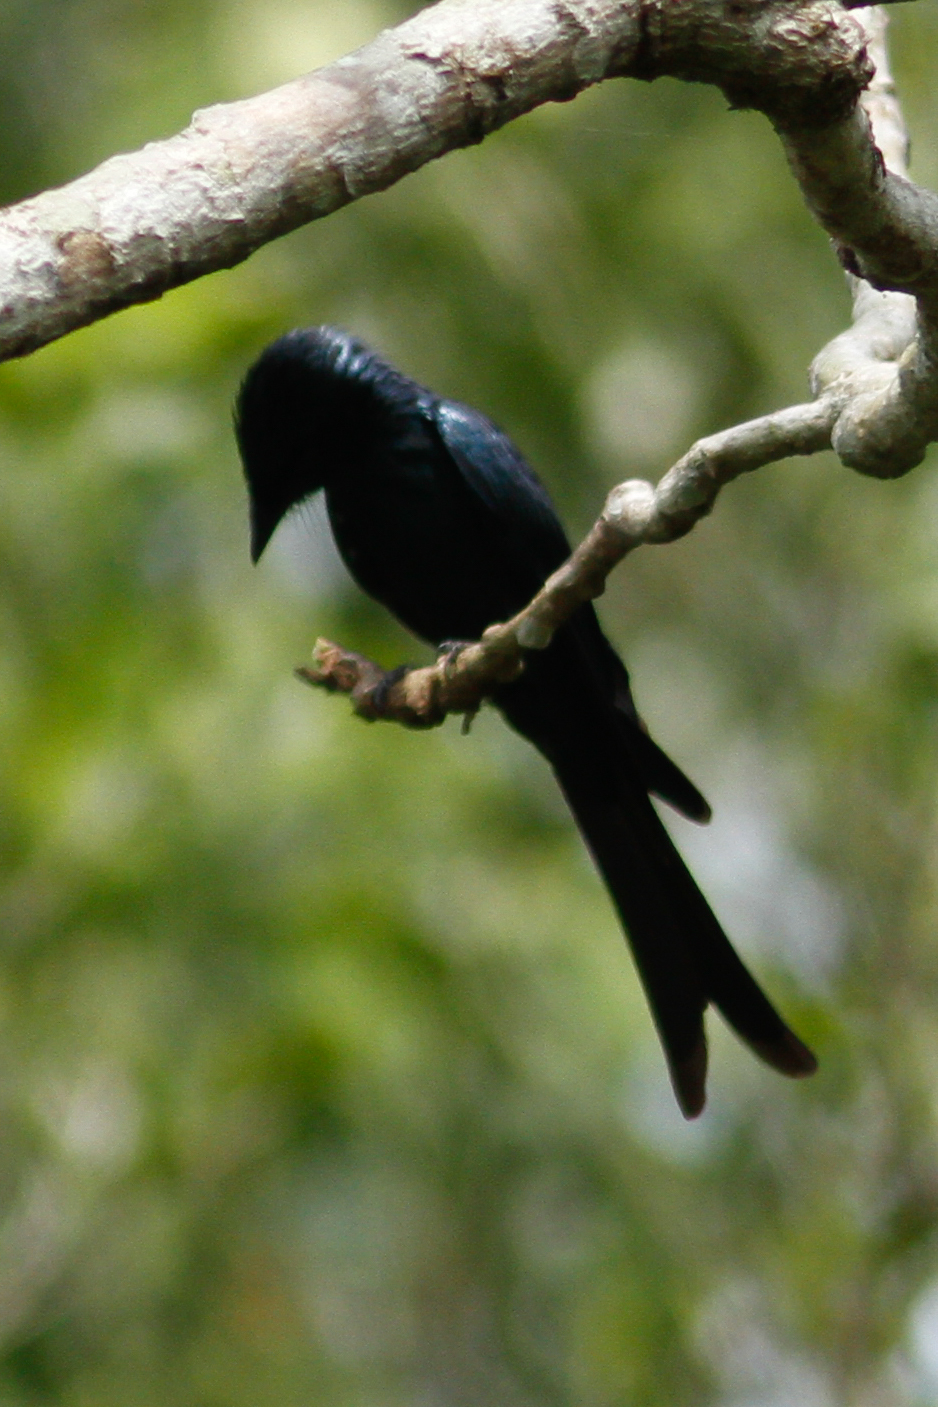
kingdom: Animalia
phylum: Chordata
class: Aves
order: Passeriformes
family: Dicruridae
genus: Dicrurus
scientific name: Dicrurus aeneus
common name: Bronzed drongo
